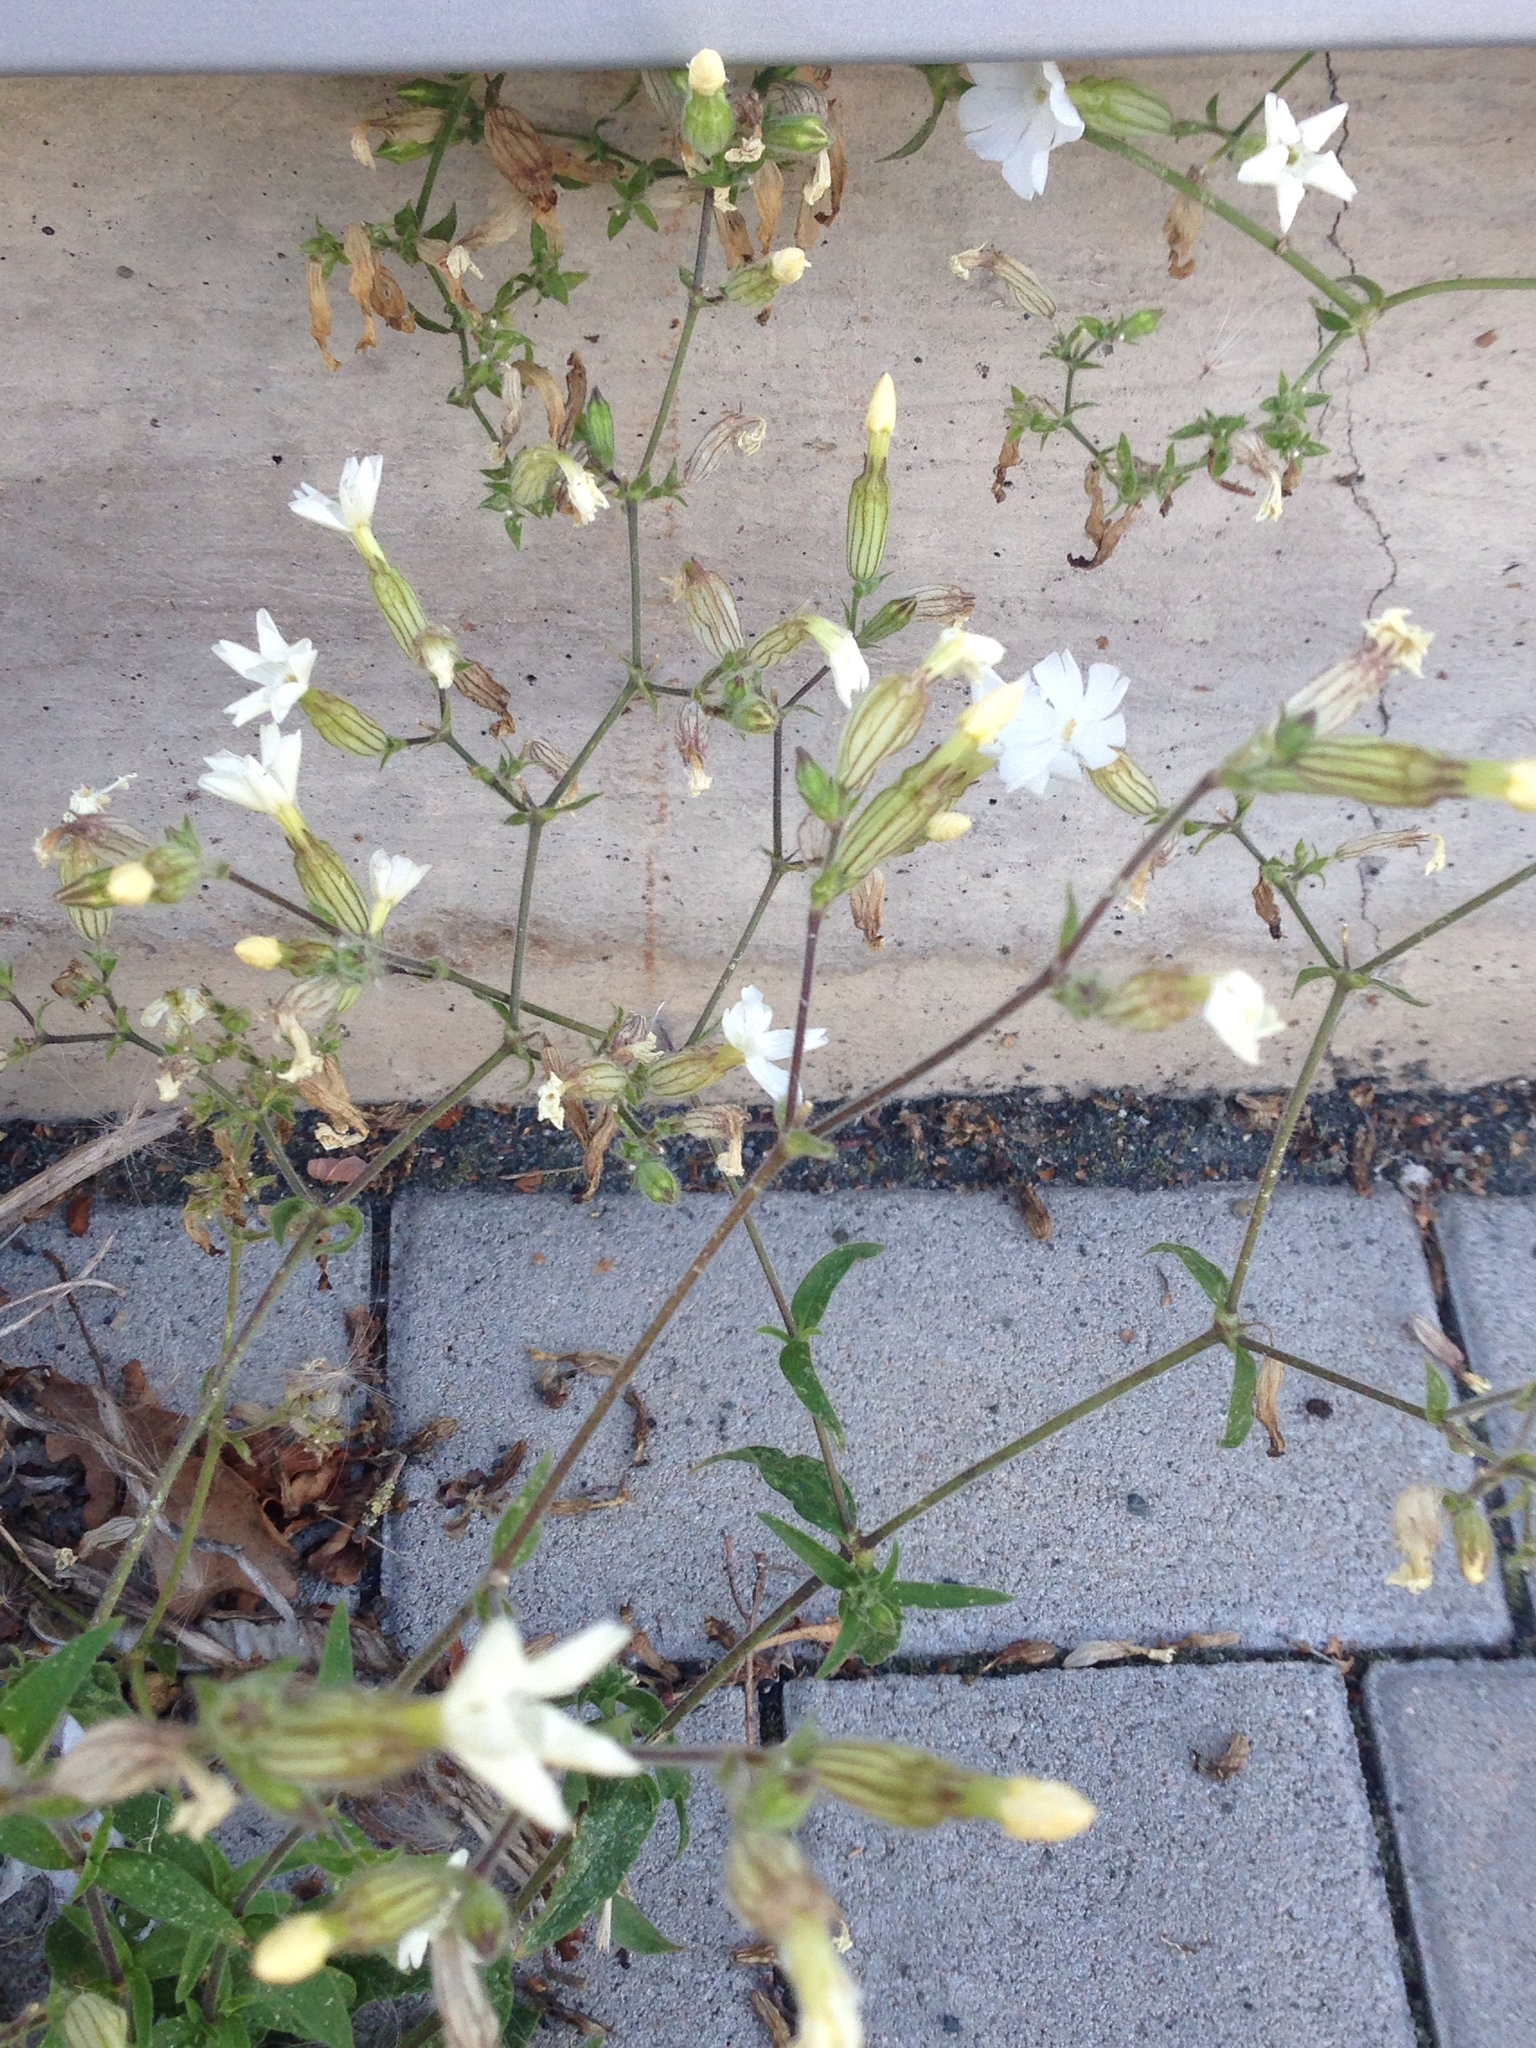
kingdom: Plantae
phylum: Tracheophyta
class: Magnoliopsida
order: Caryophyllales
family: Caryophyllaceae
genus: Silene
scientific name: Silene latifolia
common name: White campion
